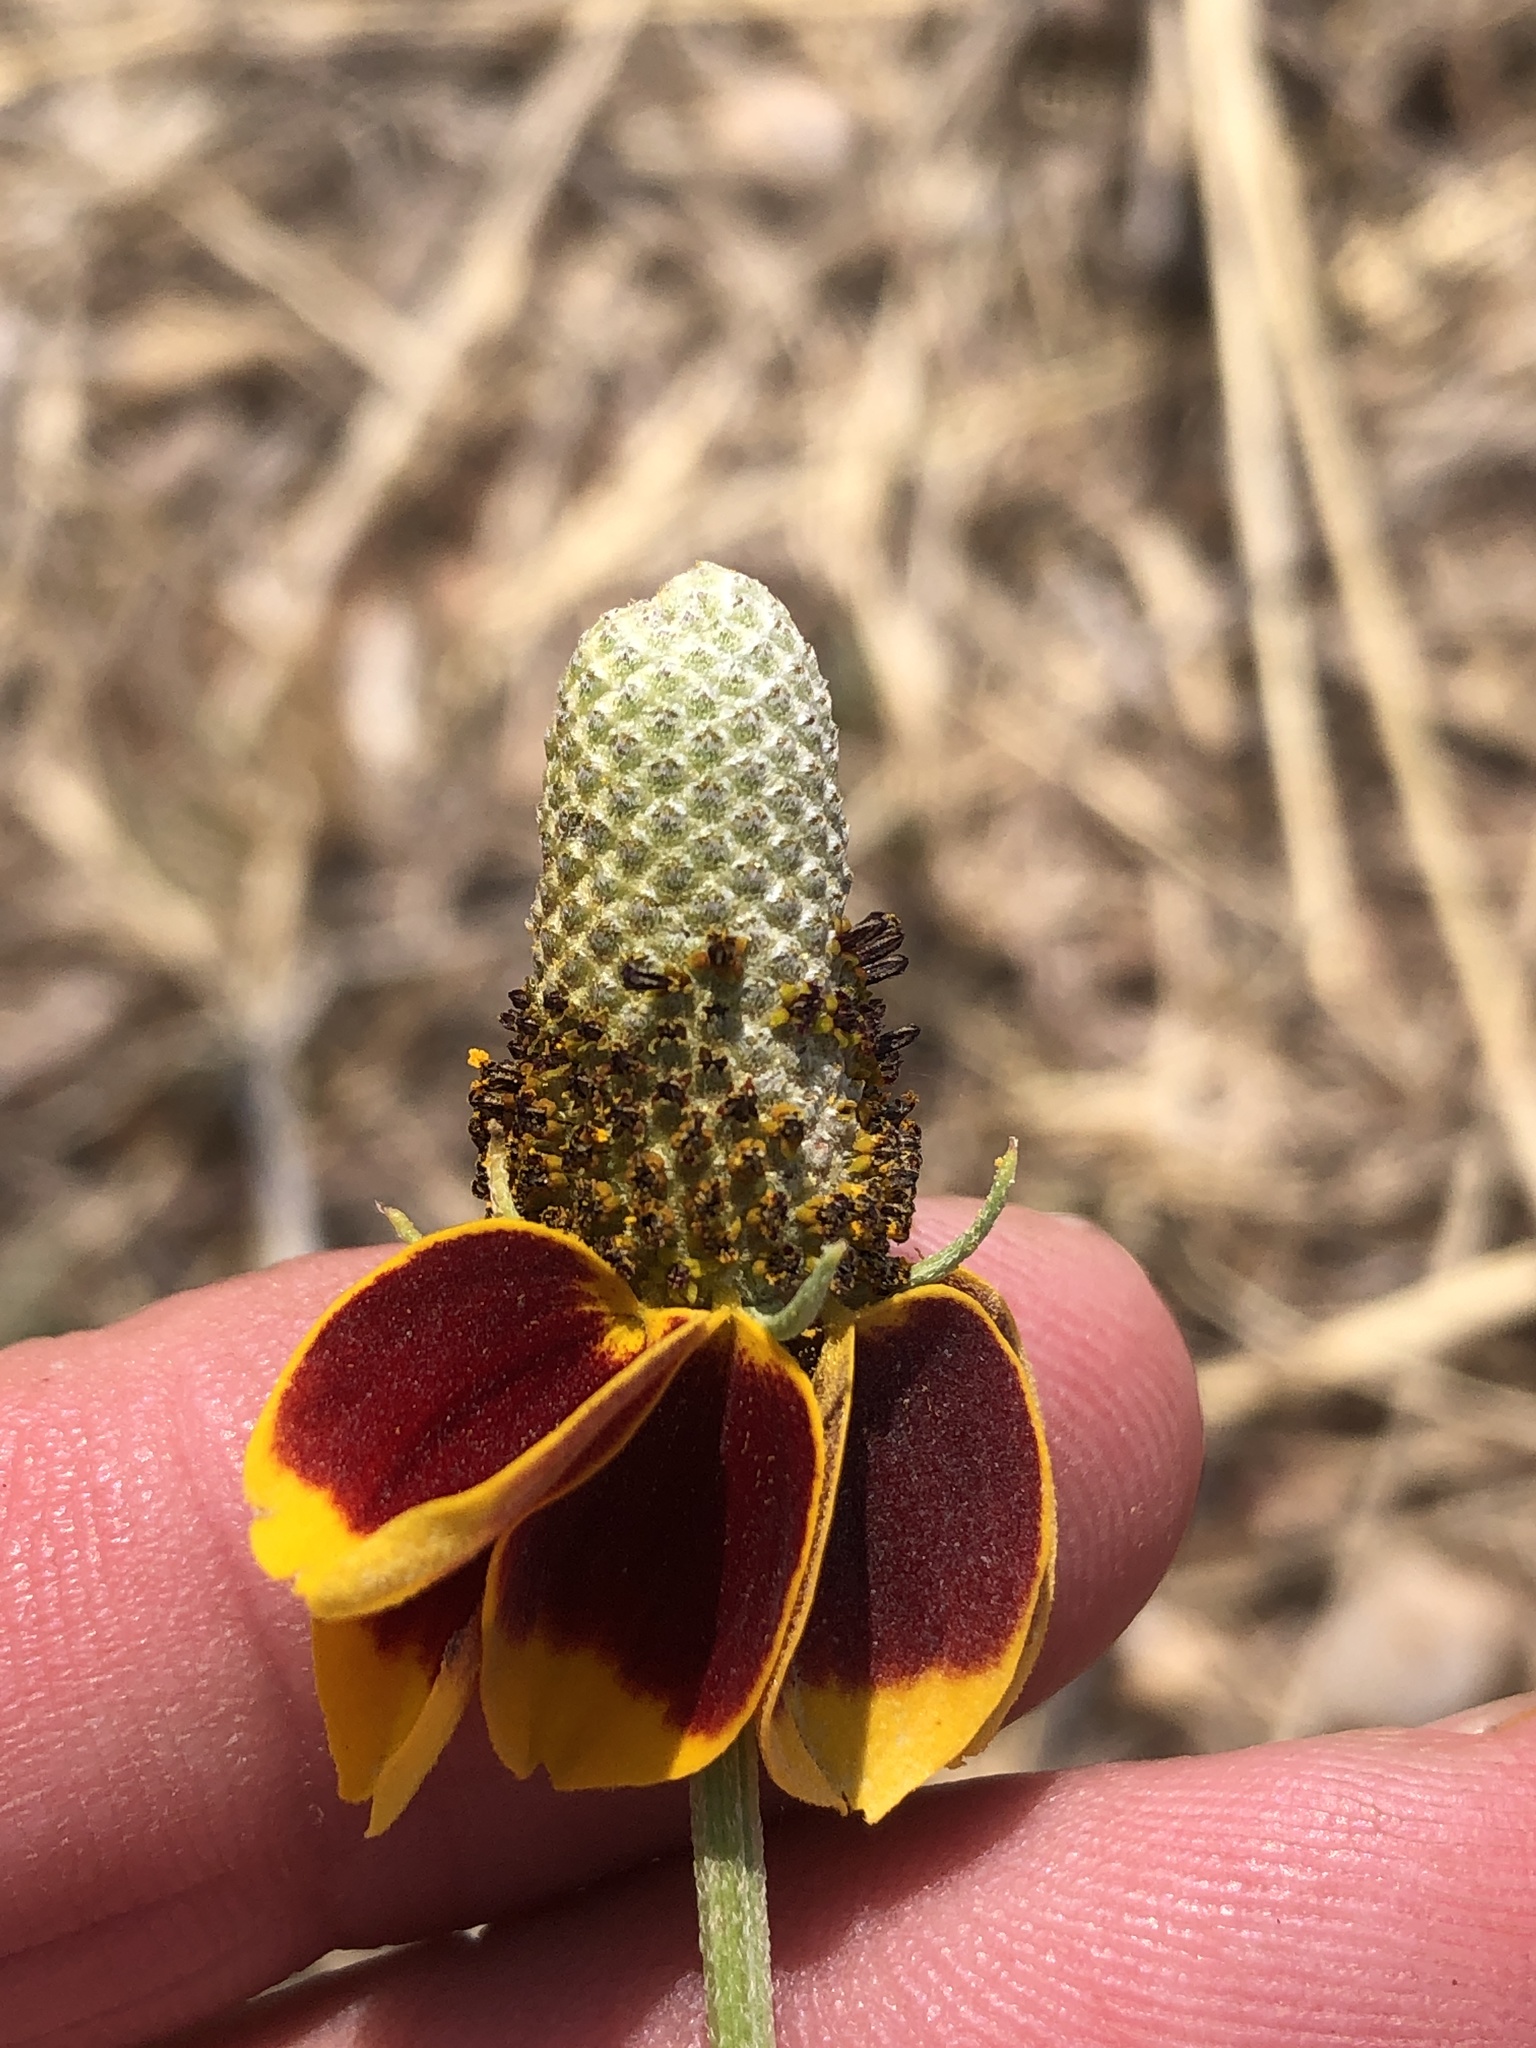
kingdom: Plantae
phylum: Tracheophyta
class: Magnoliopsida
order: Asterales
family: Asteraceae
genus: Ratibida
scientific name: Ratibida columnifera
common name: Prairie coneflower
